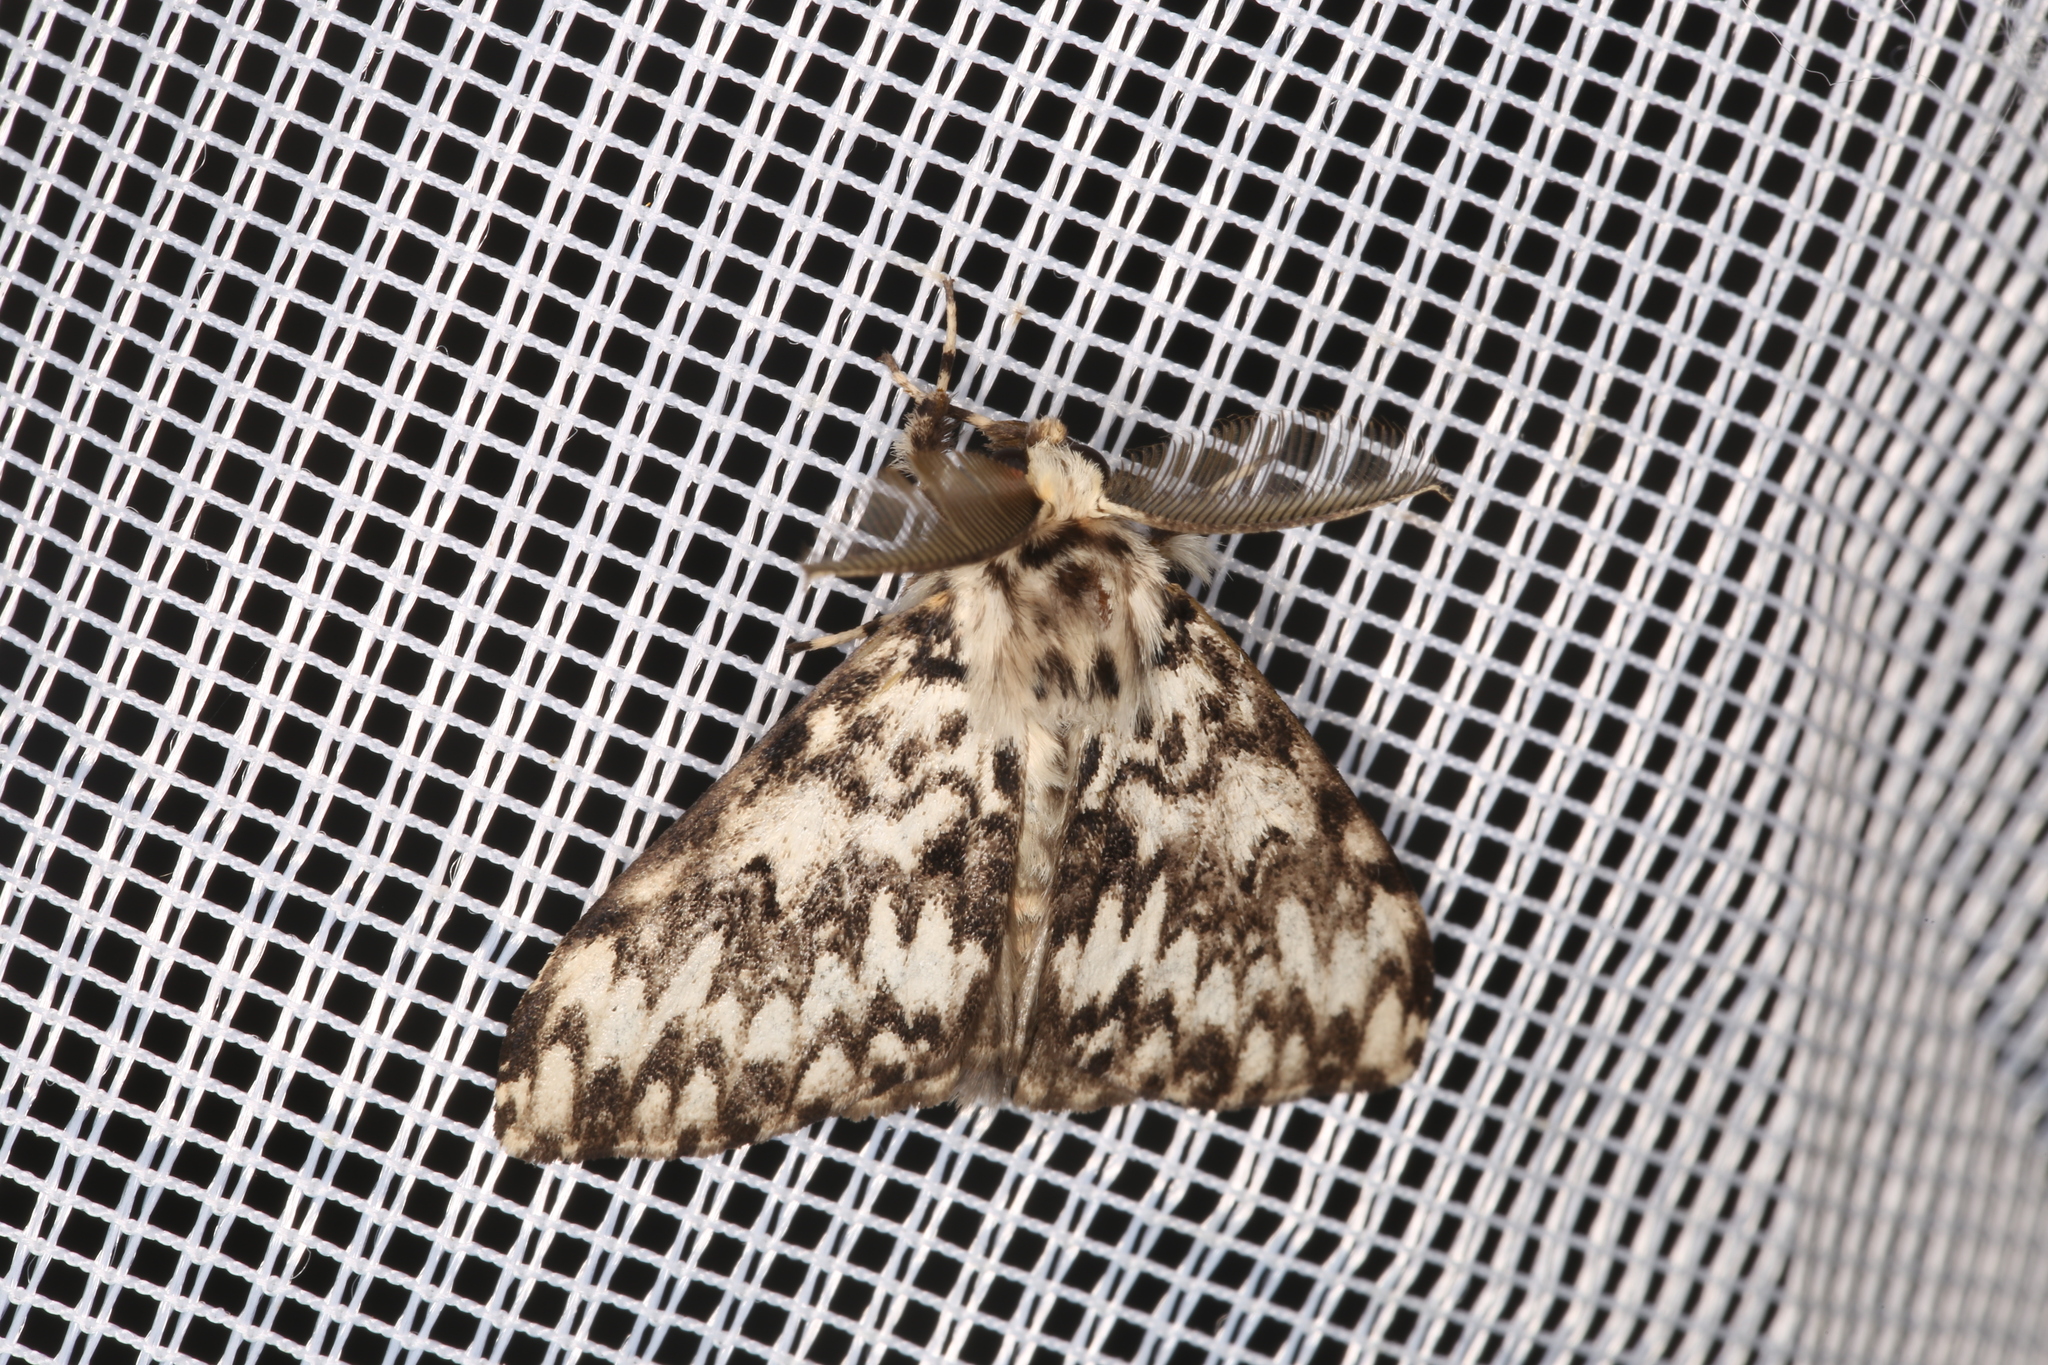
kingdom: Animalia
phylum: Arthropoda
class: Insecta
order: Lepidoptera
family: Erebidae
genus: Lymantria
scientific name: Lymantria monacha
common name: Black arches
